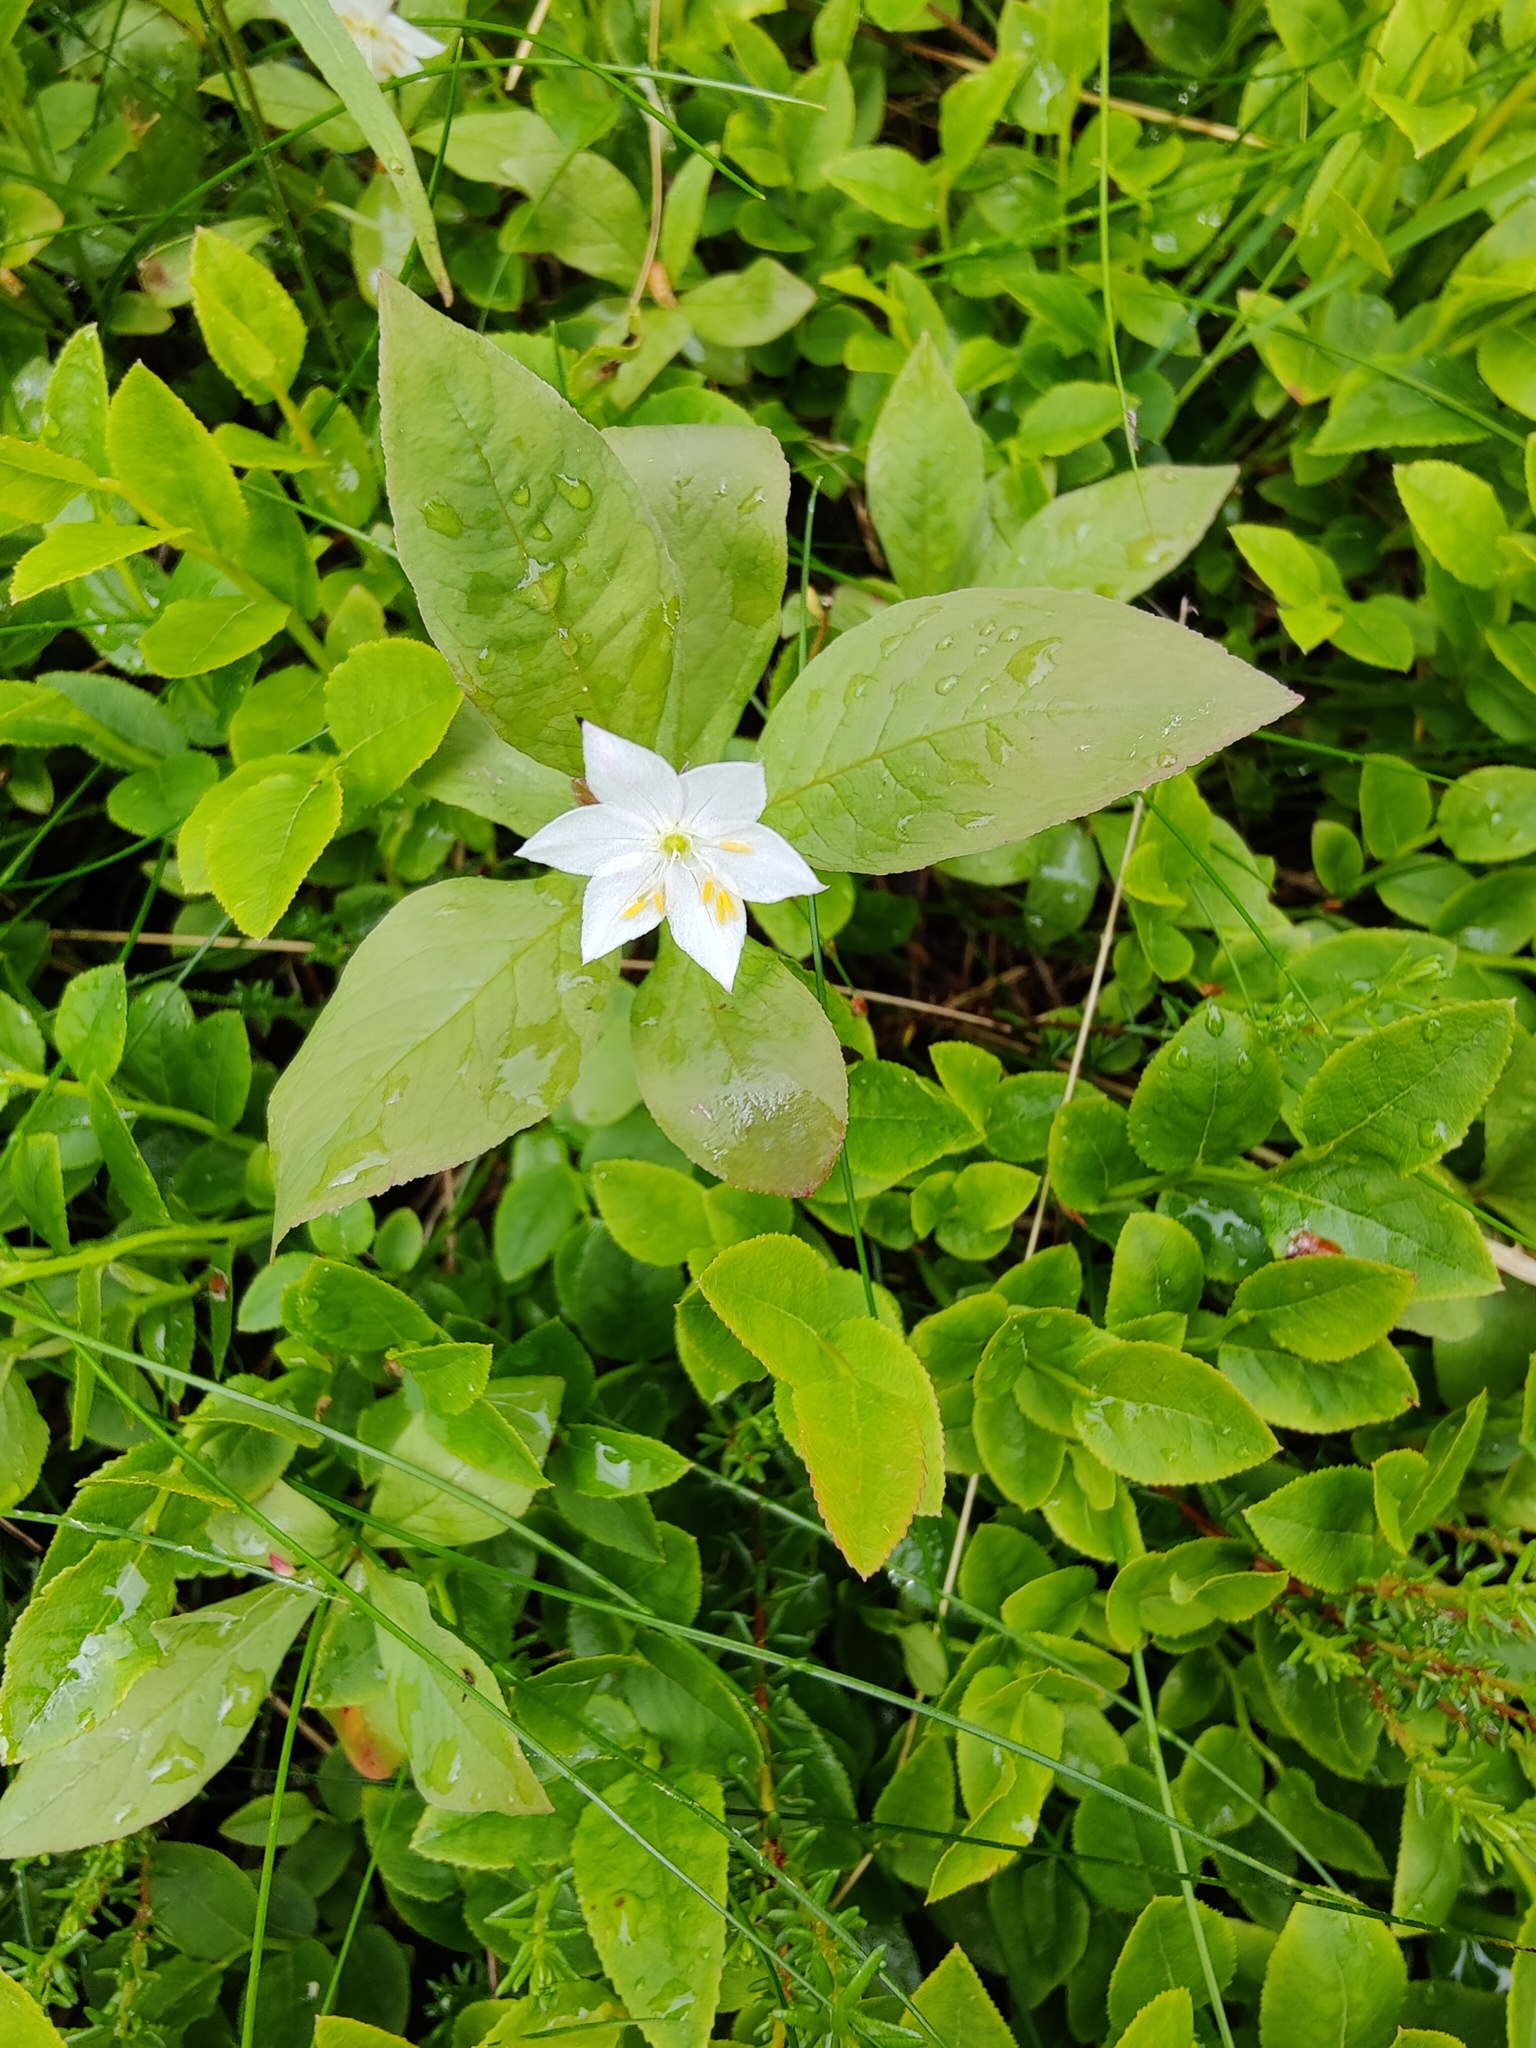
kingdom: Plantae
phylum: Tracheophyta
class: Magnoliopsida
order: Ericales
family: Primulaceae
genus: Lysimachia
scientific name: Lysimachia europaea
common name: Arctic starflower
